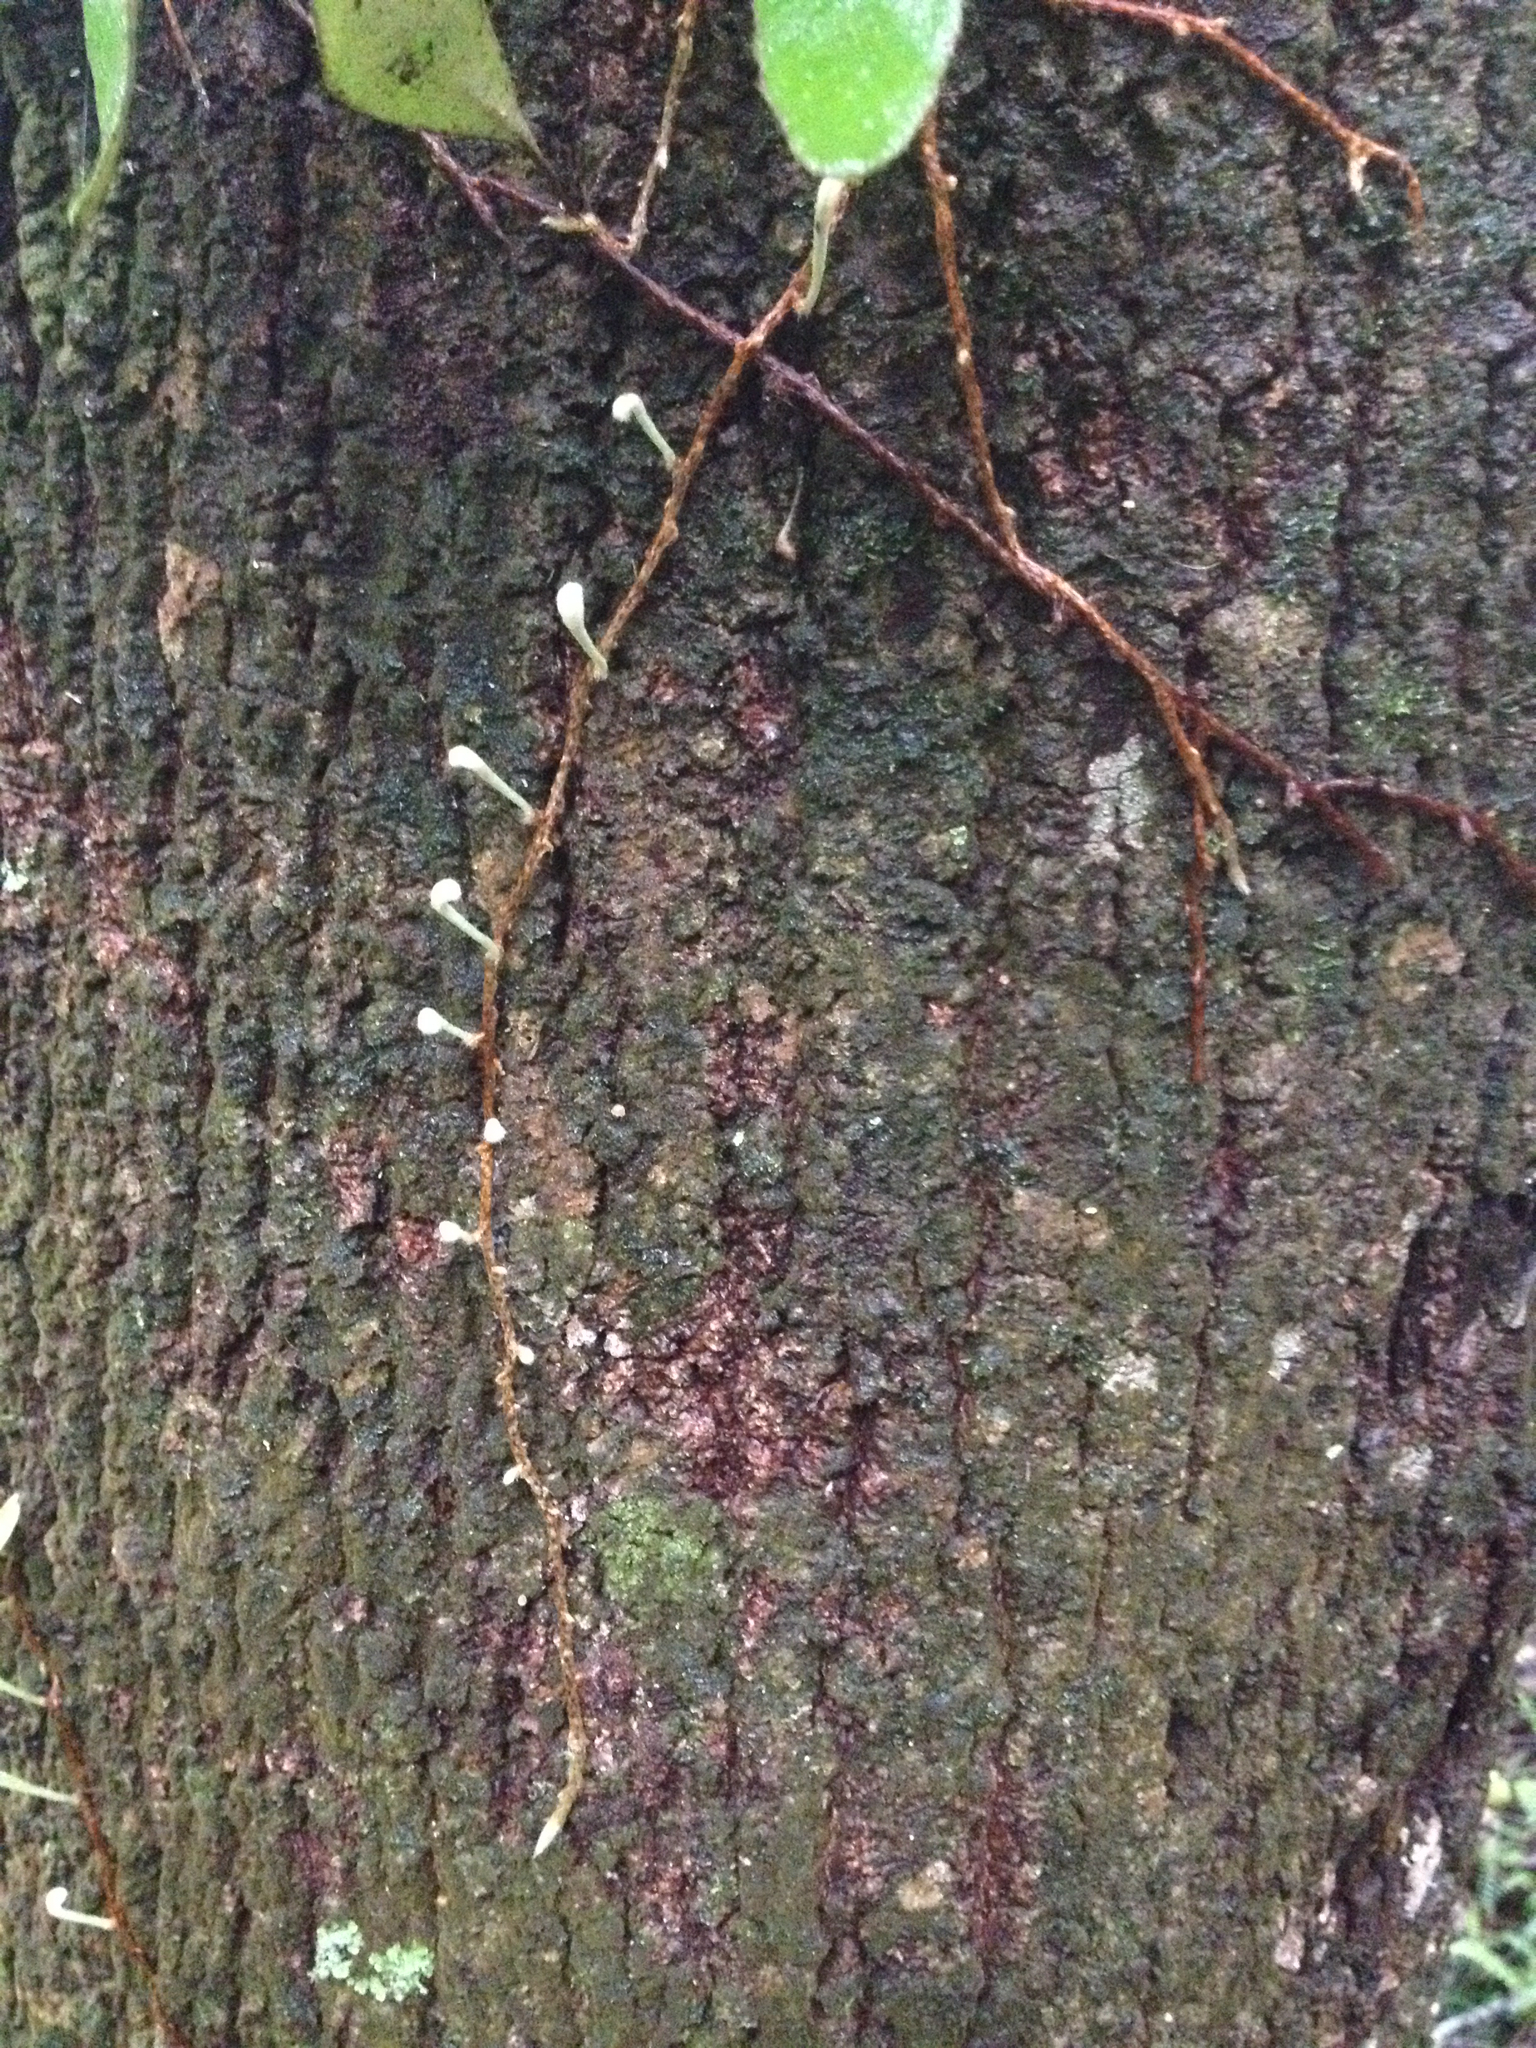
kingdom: Plantae
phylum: Tracheophyta
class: Polypodiopsida
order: Polypodiales
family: Polypodiaceae
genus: Pyrrosia
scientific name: Pyrrosia eleagnifolia
